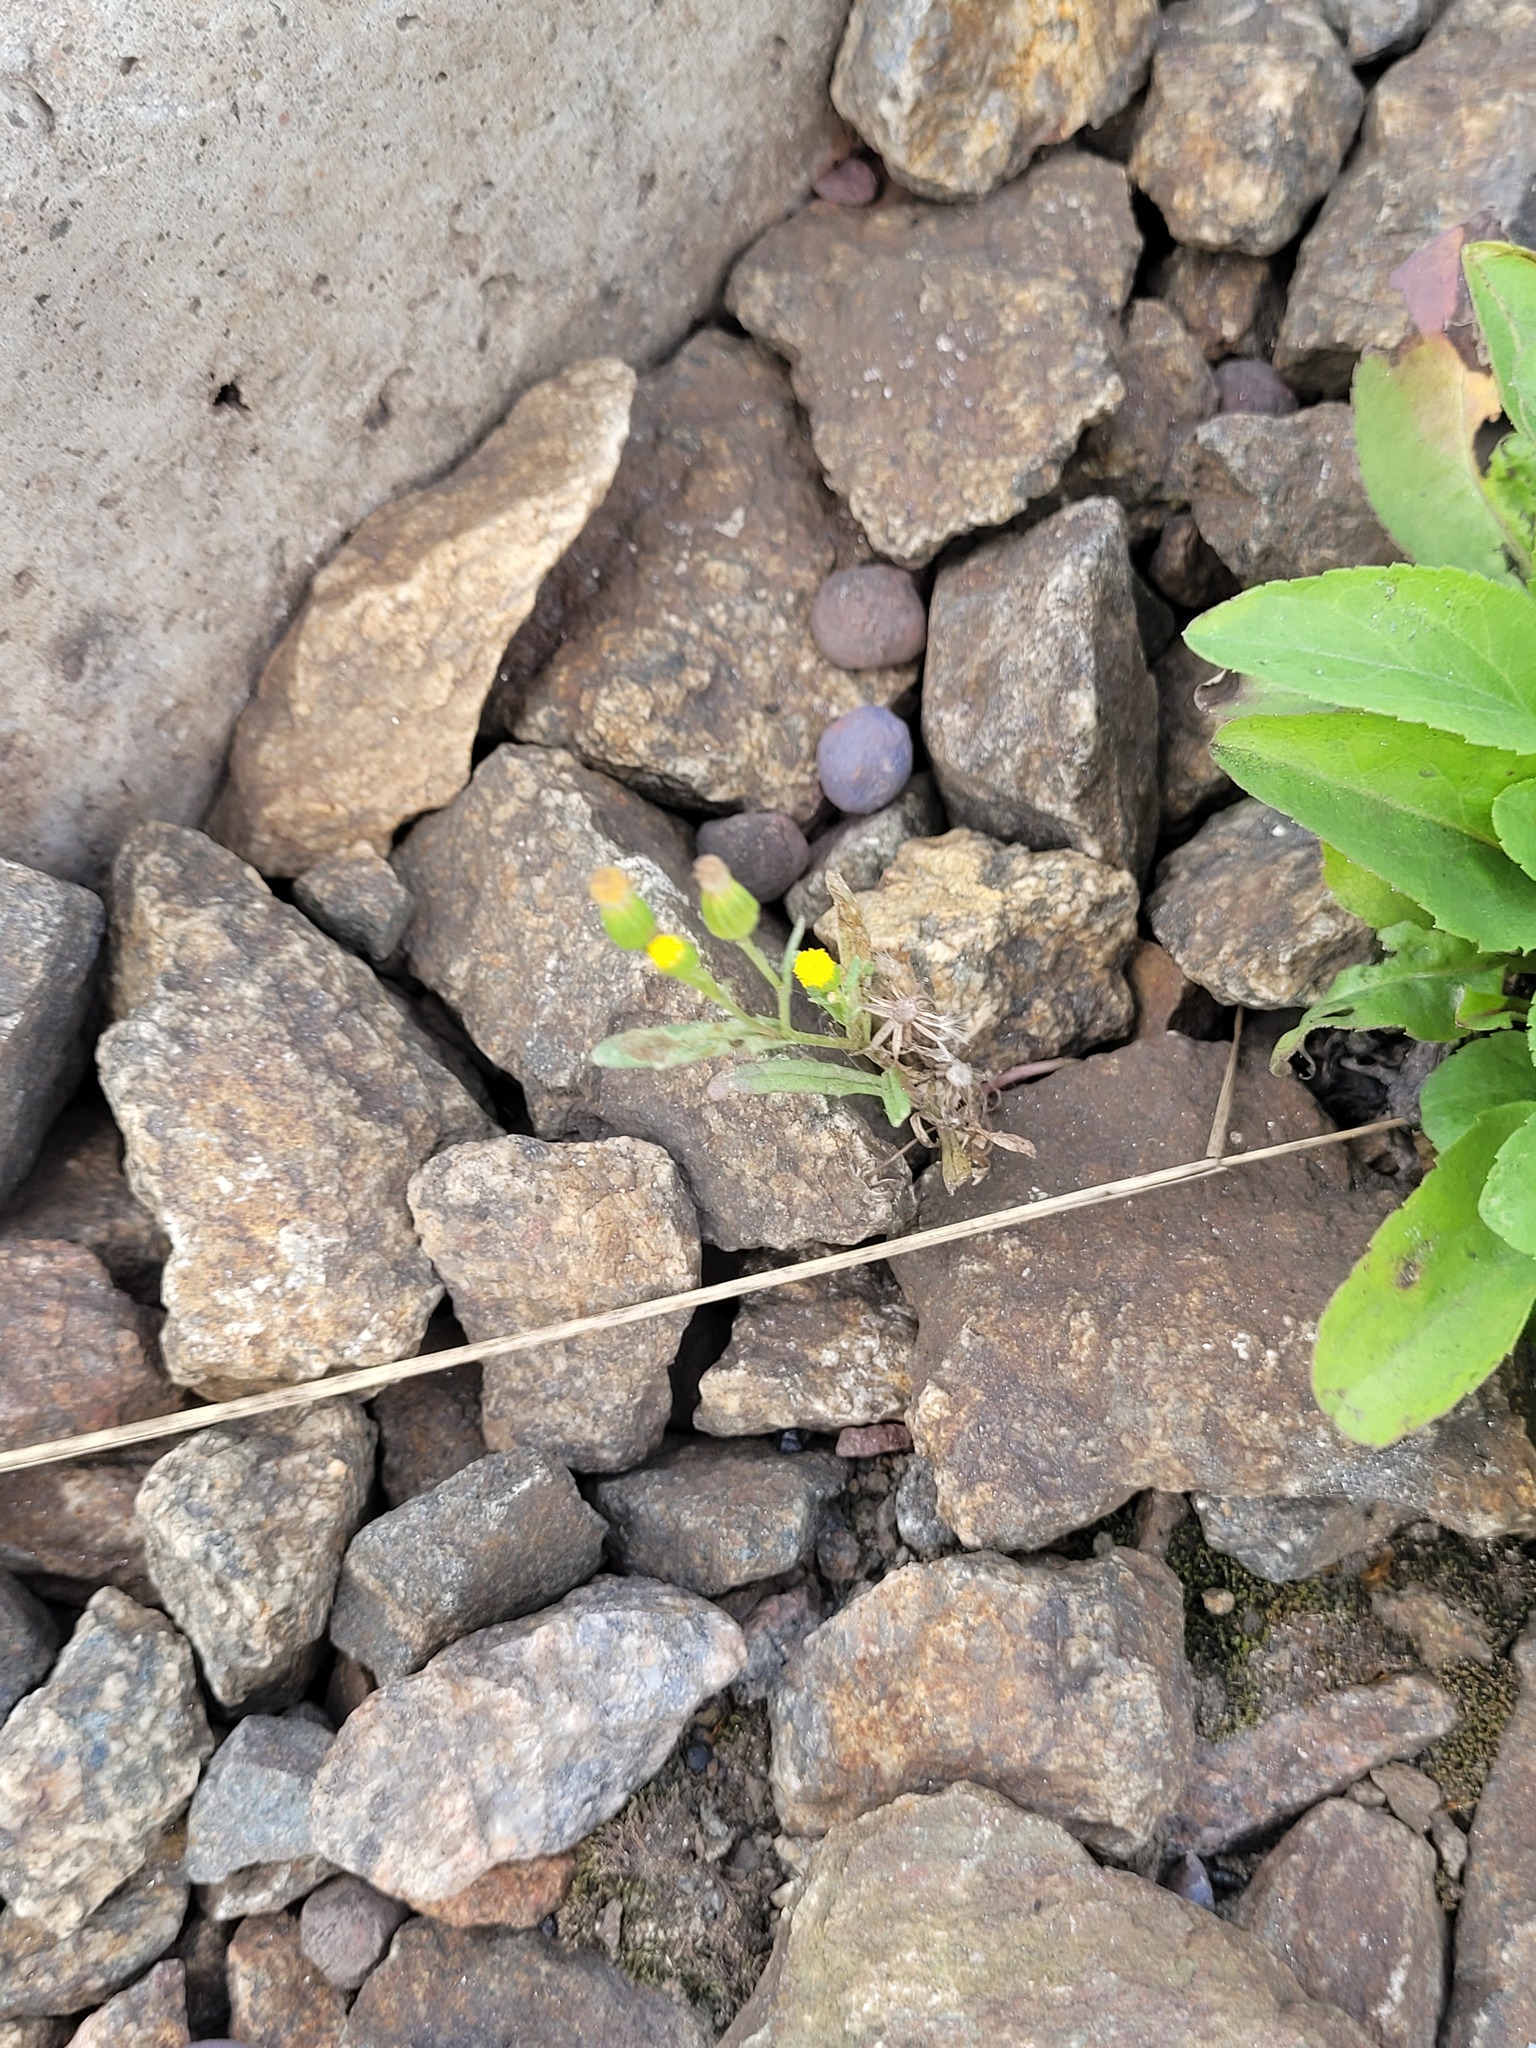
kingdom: Plantae
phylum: Tracheophyta
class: Magnoliopsida
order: Asterales
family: Asteraceae
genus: Senecio
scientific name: Senecio dubitabilis
